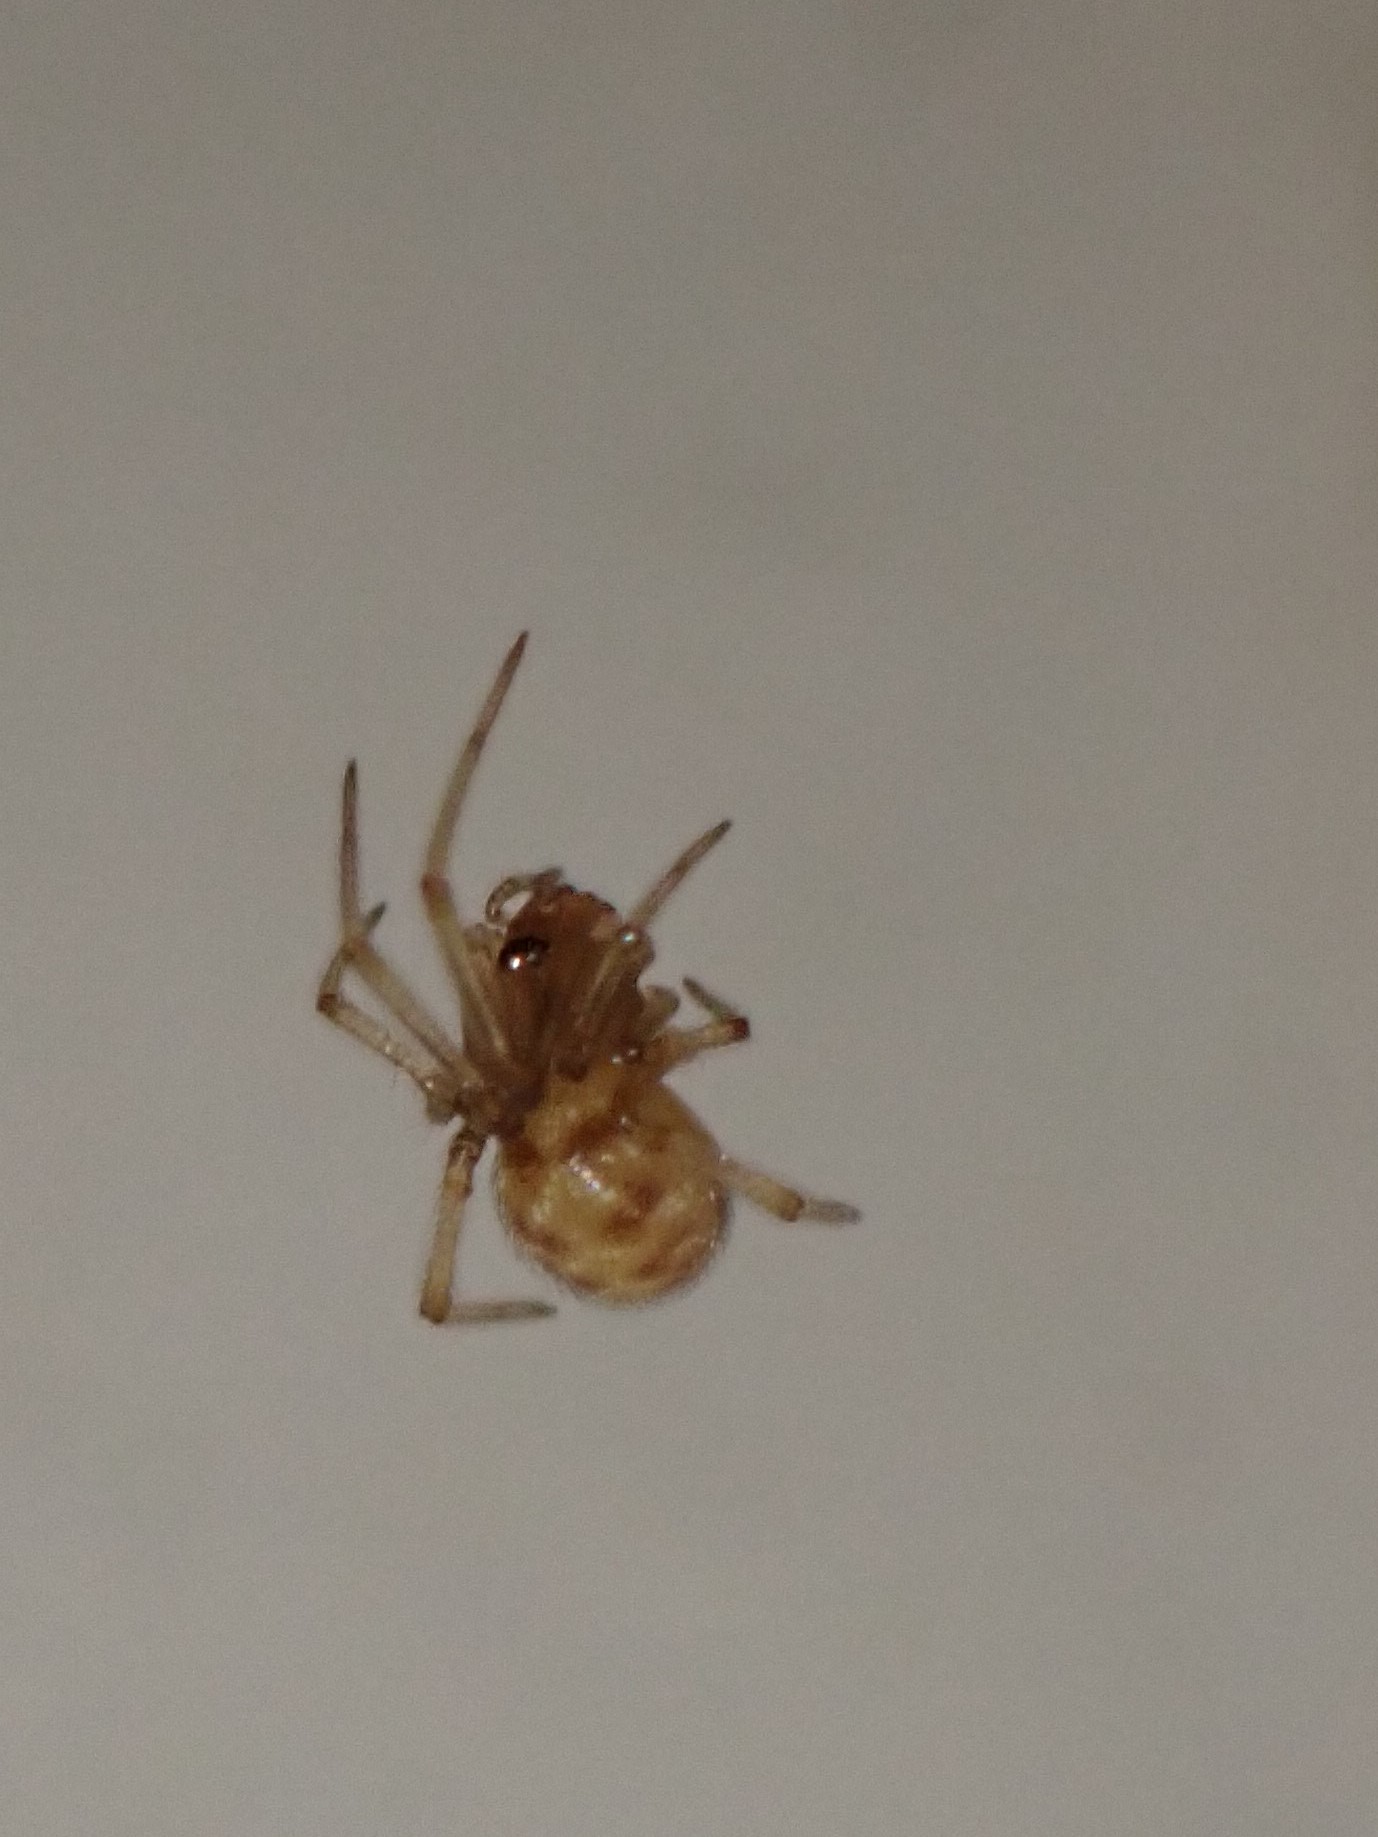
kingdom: Animalia
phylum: Arthropoda
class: Arachnida
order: Araneae
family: Theridiidae
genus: Steatoda
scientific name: Steatoda triangulosa
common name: Triangulate bud spider
